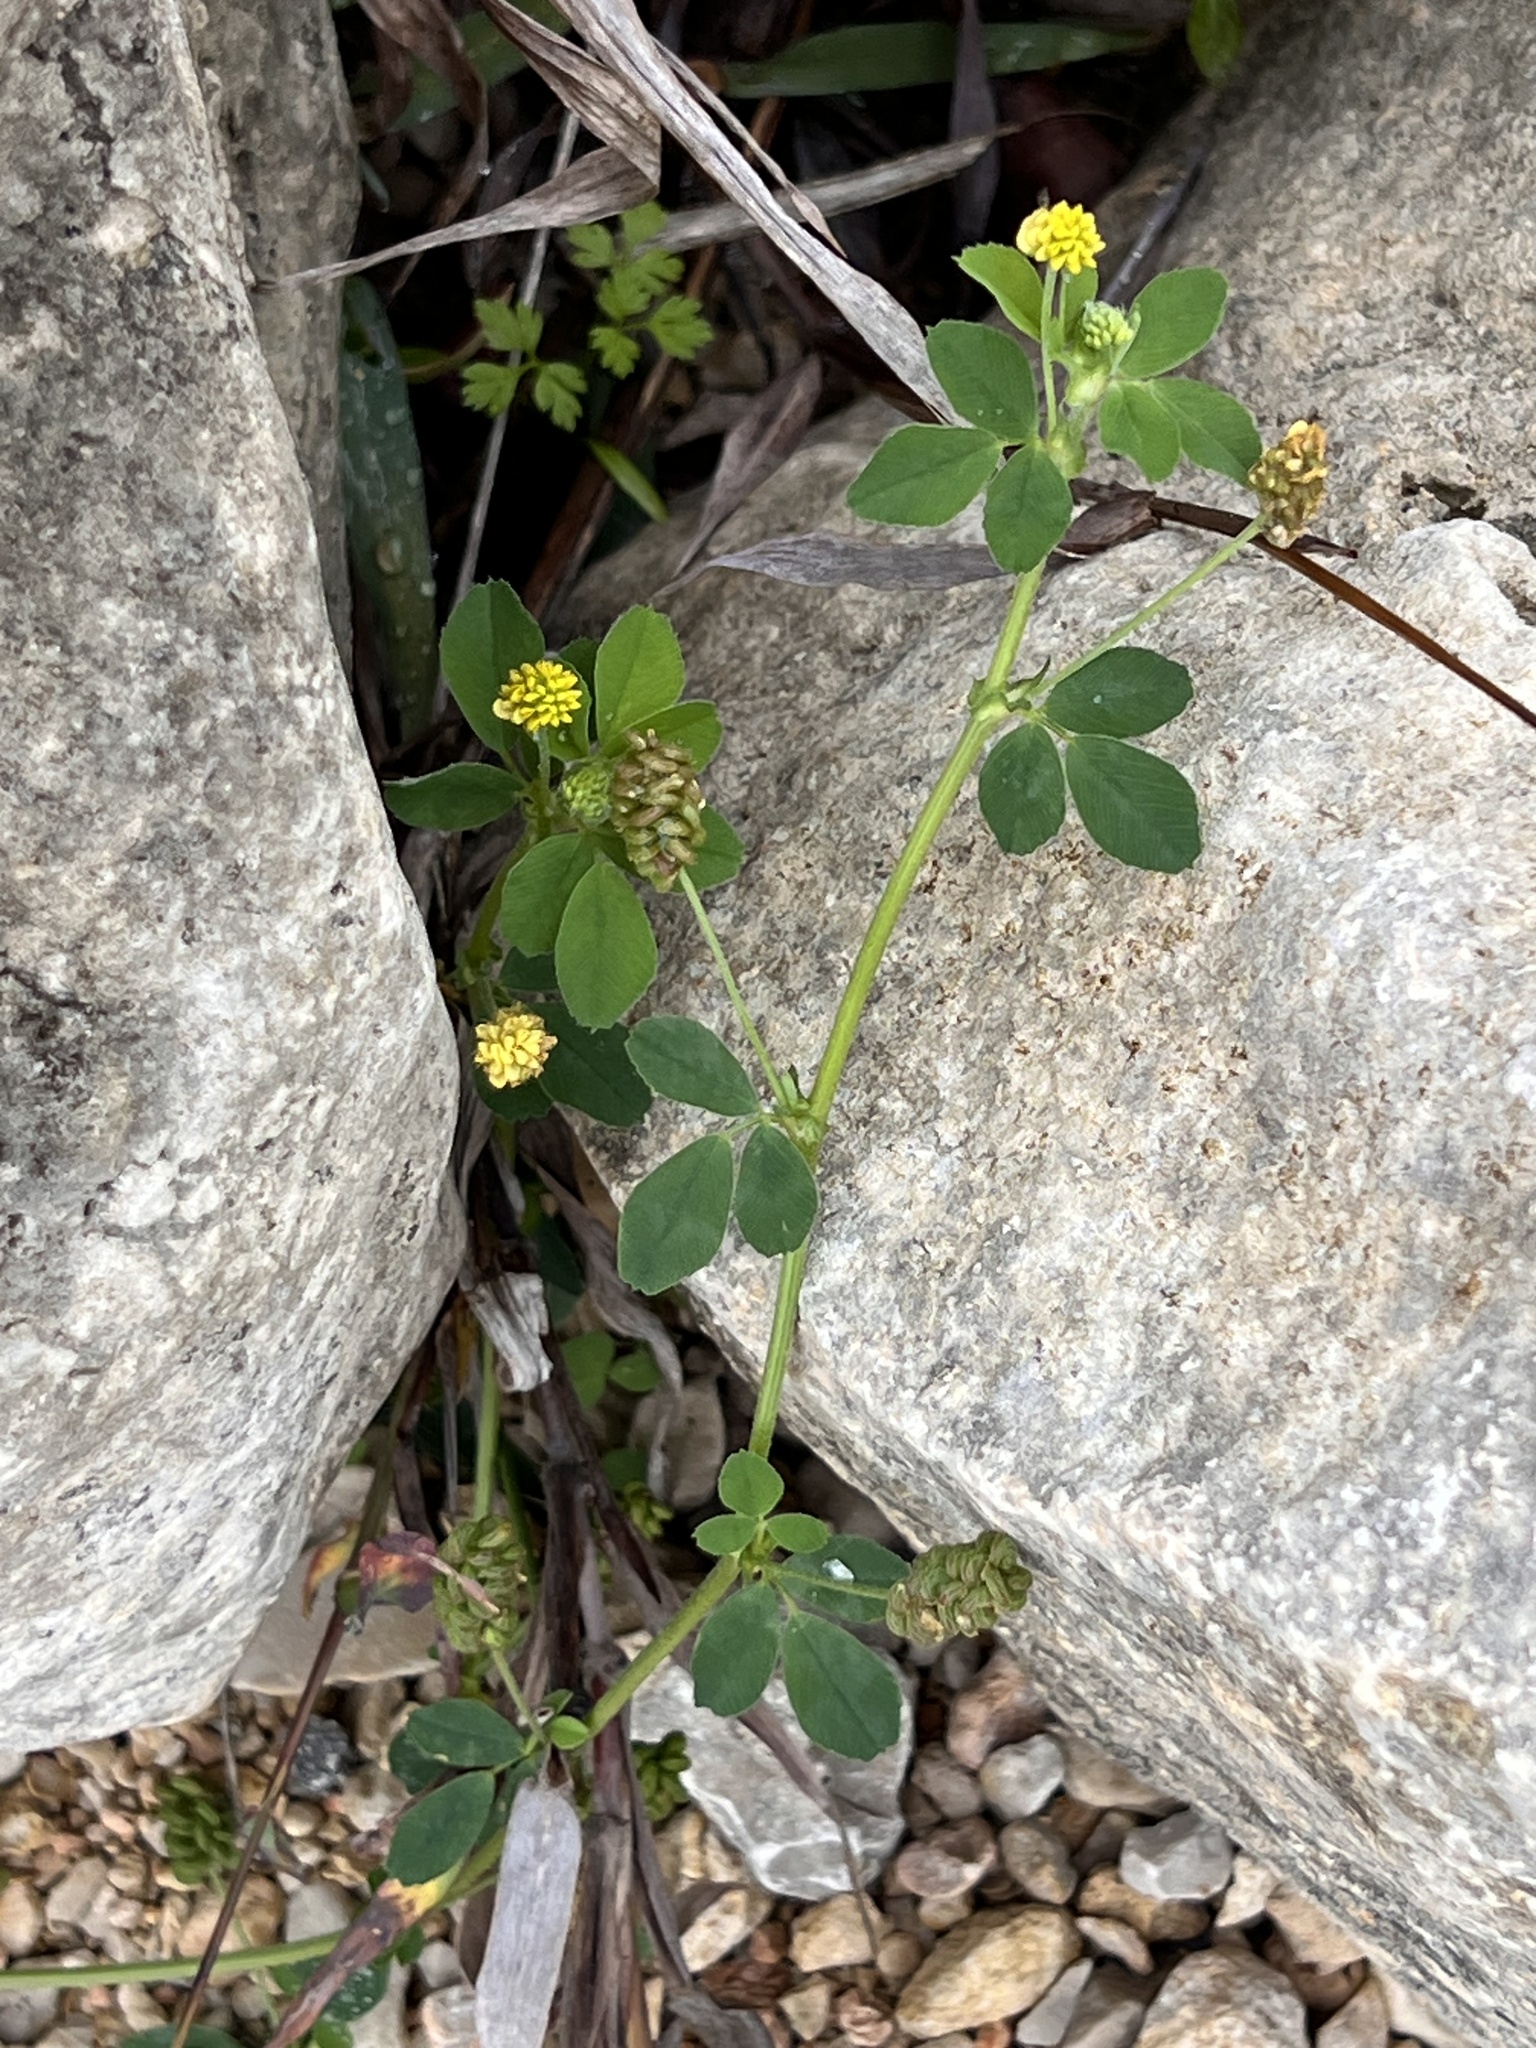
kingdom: Plantae
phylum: Tracheophyta
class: Magnoliopsida
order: Fabales
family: Fabaceae
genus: Medicago
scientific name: Medicago lupulina
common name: Black medick
